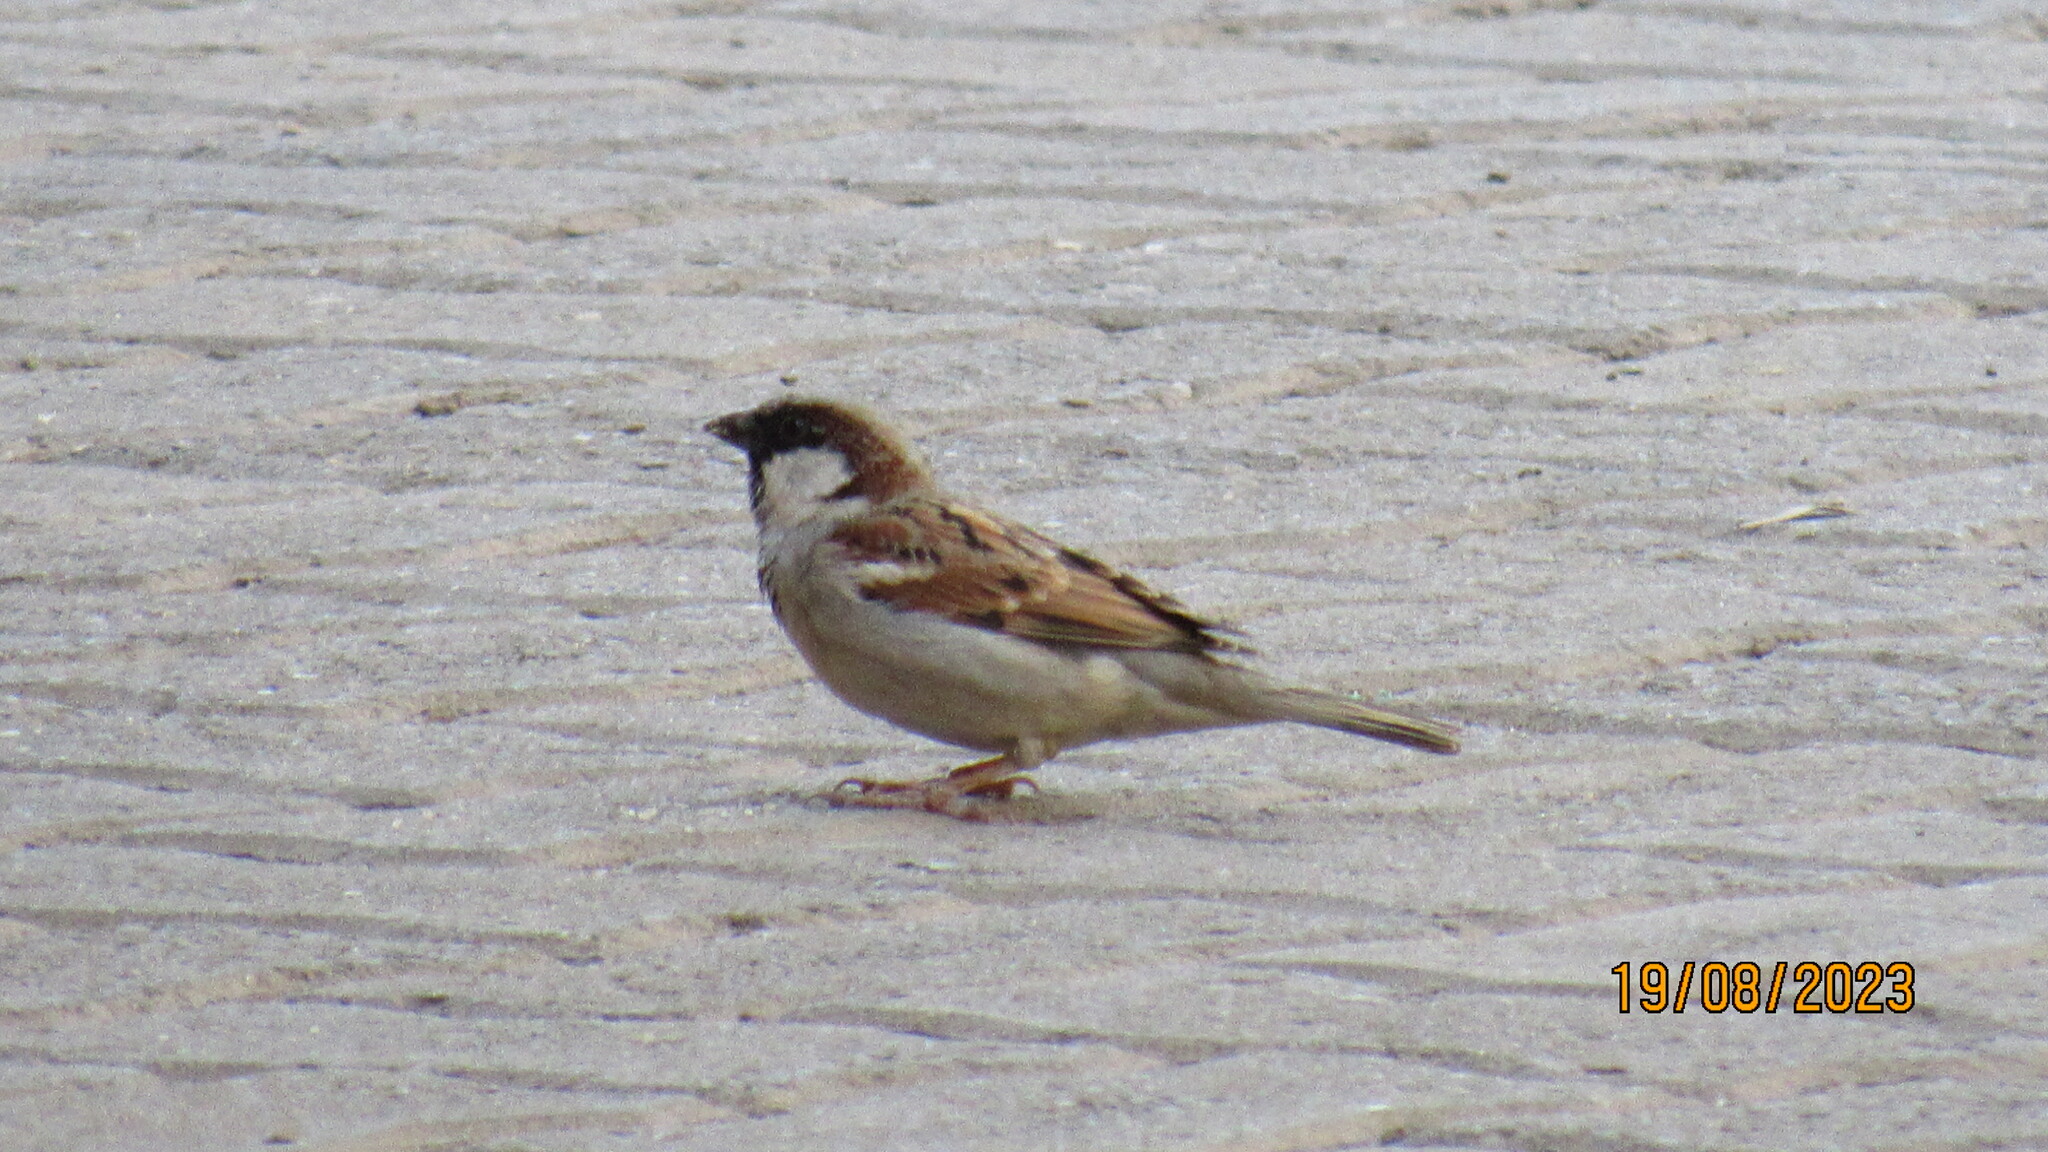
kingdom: Animalia
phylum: Chordata
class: Aves
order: Passeriformes
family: Passeridae
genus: Passer
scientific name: Passer domesticus
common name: House sparrow
